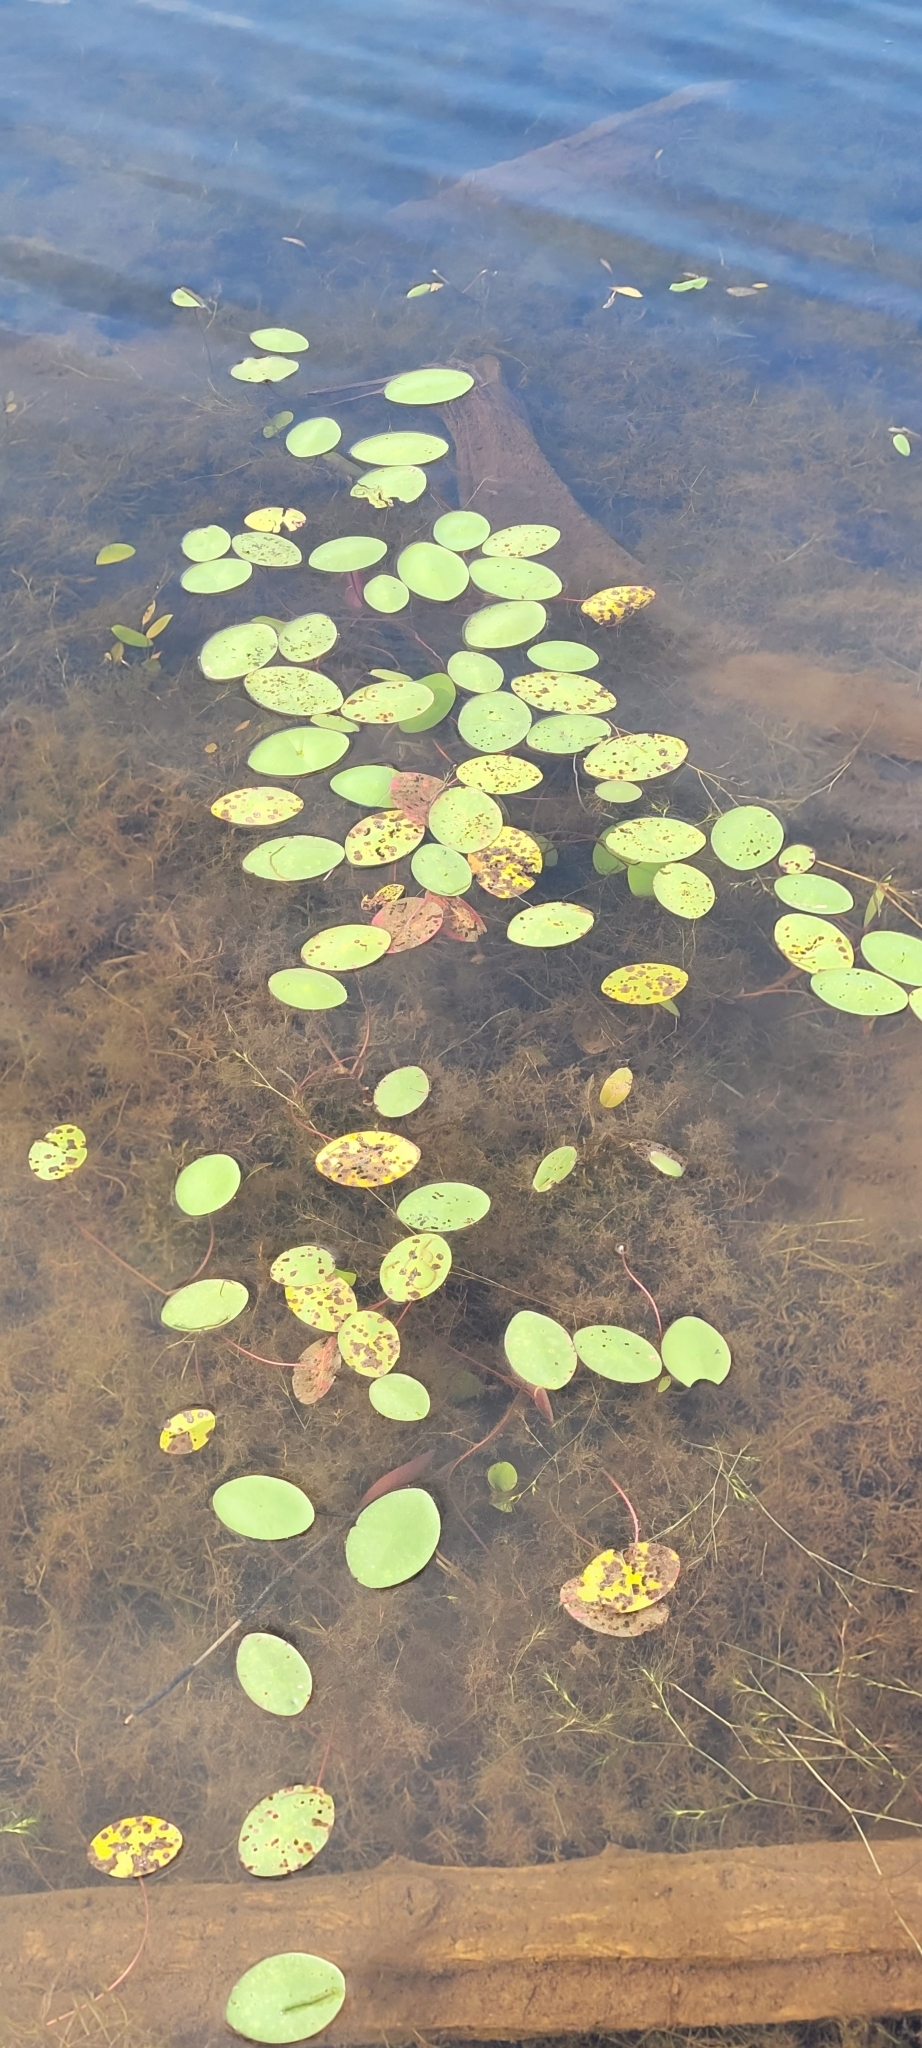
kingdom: Plantae
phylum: Tracheophyta
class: Magnoliopsida
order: Nymphaeales
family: Cabombaceae
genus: Brasenia
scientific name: Brasenia schreberi
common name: Water-shield
